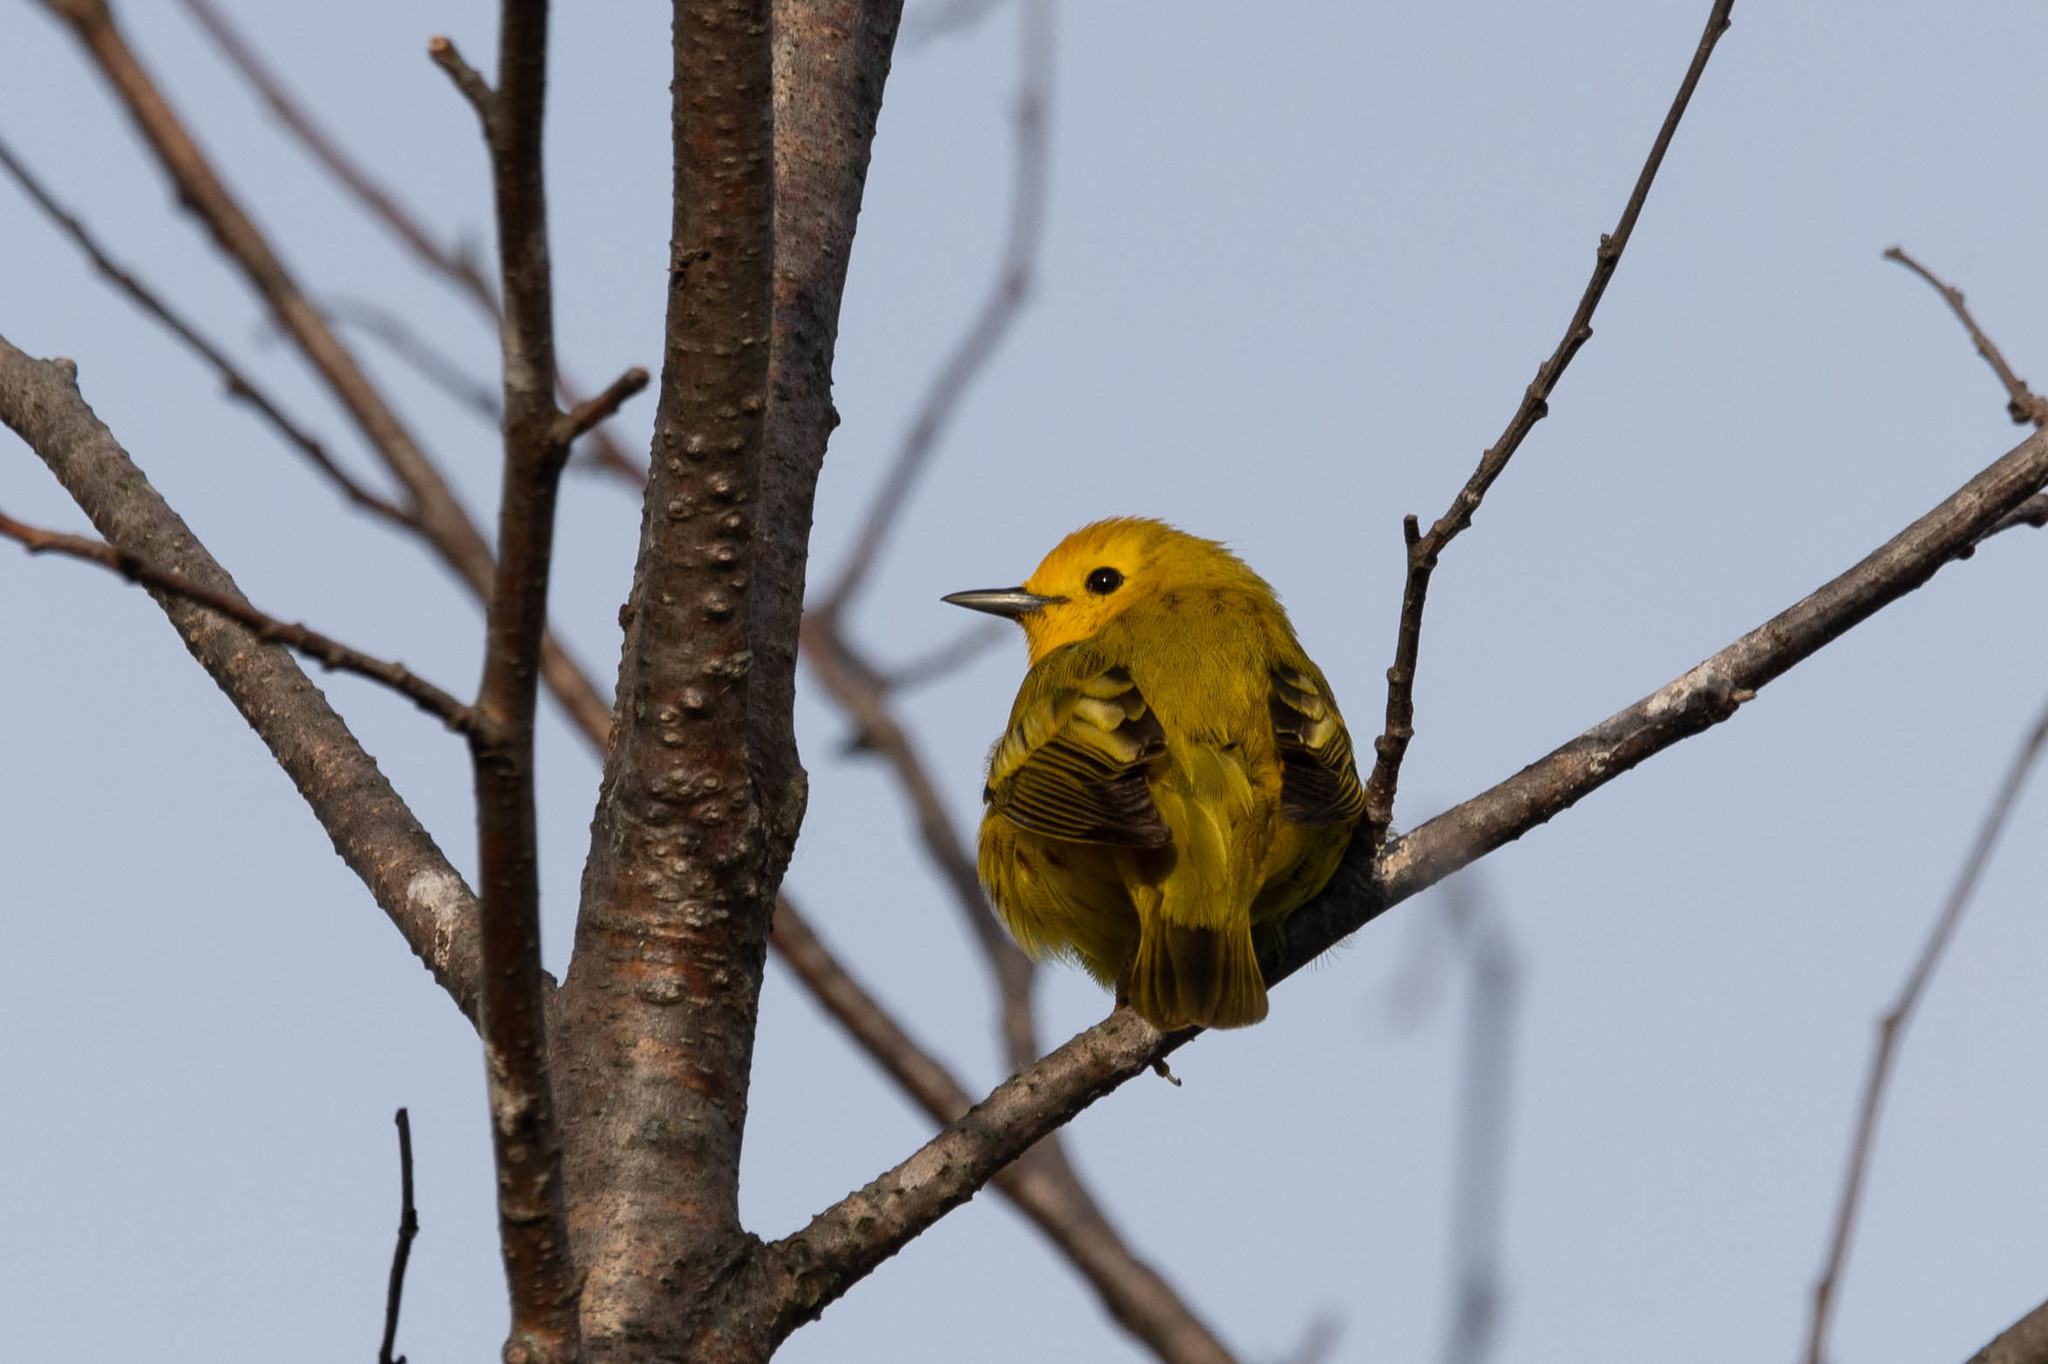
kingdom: Animalia
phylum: Chordata
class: Aves
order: Passeriformes
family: Parulidae
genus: Setophaga
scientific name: Setophaga petechia
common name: Yellow warbler
